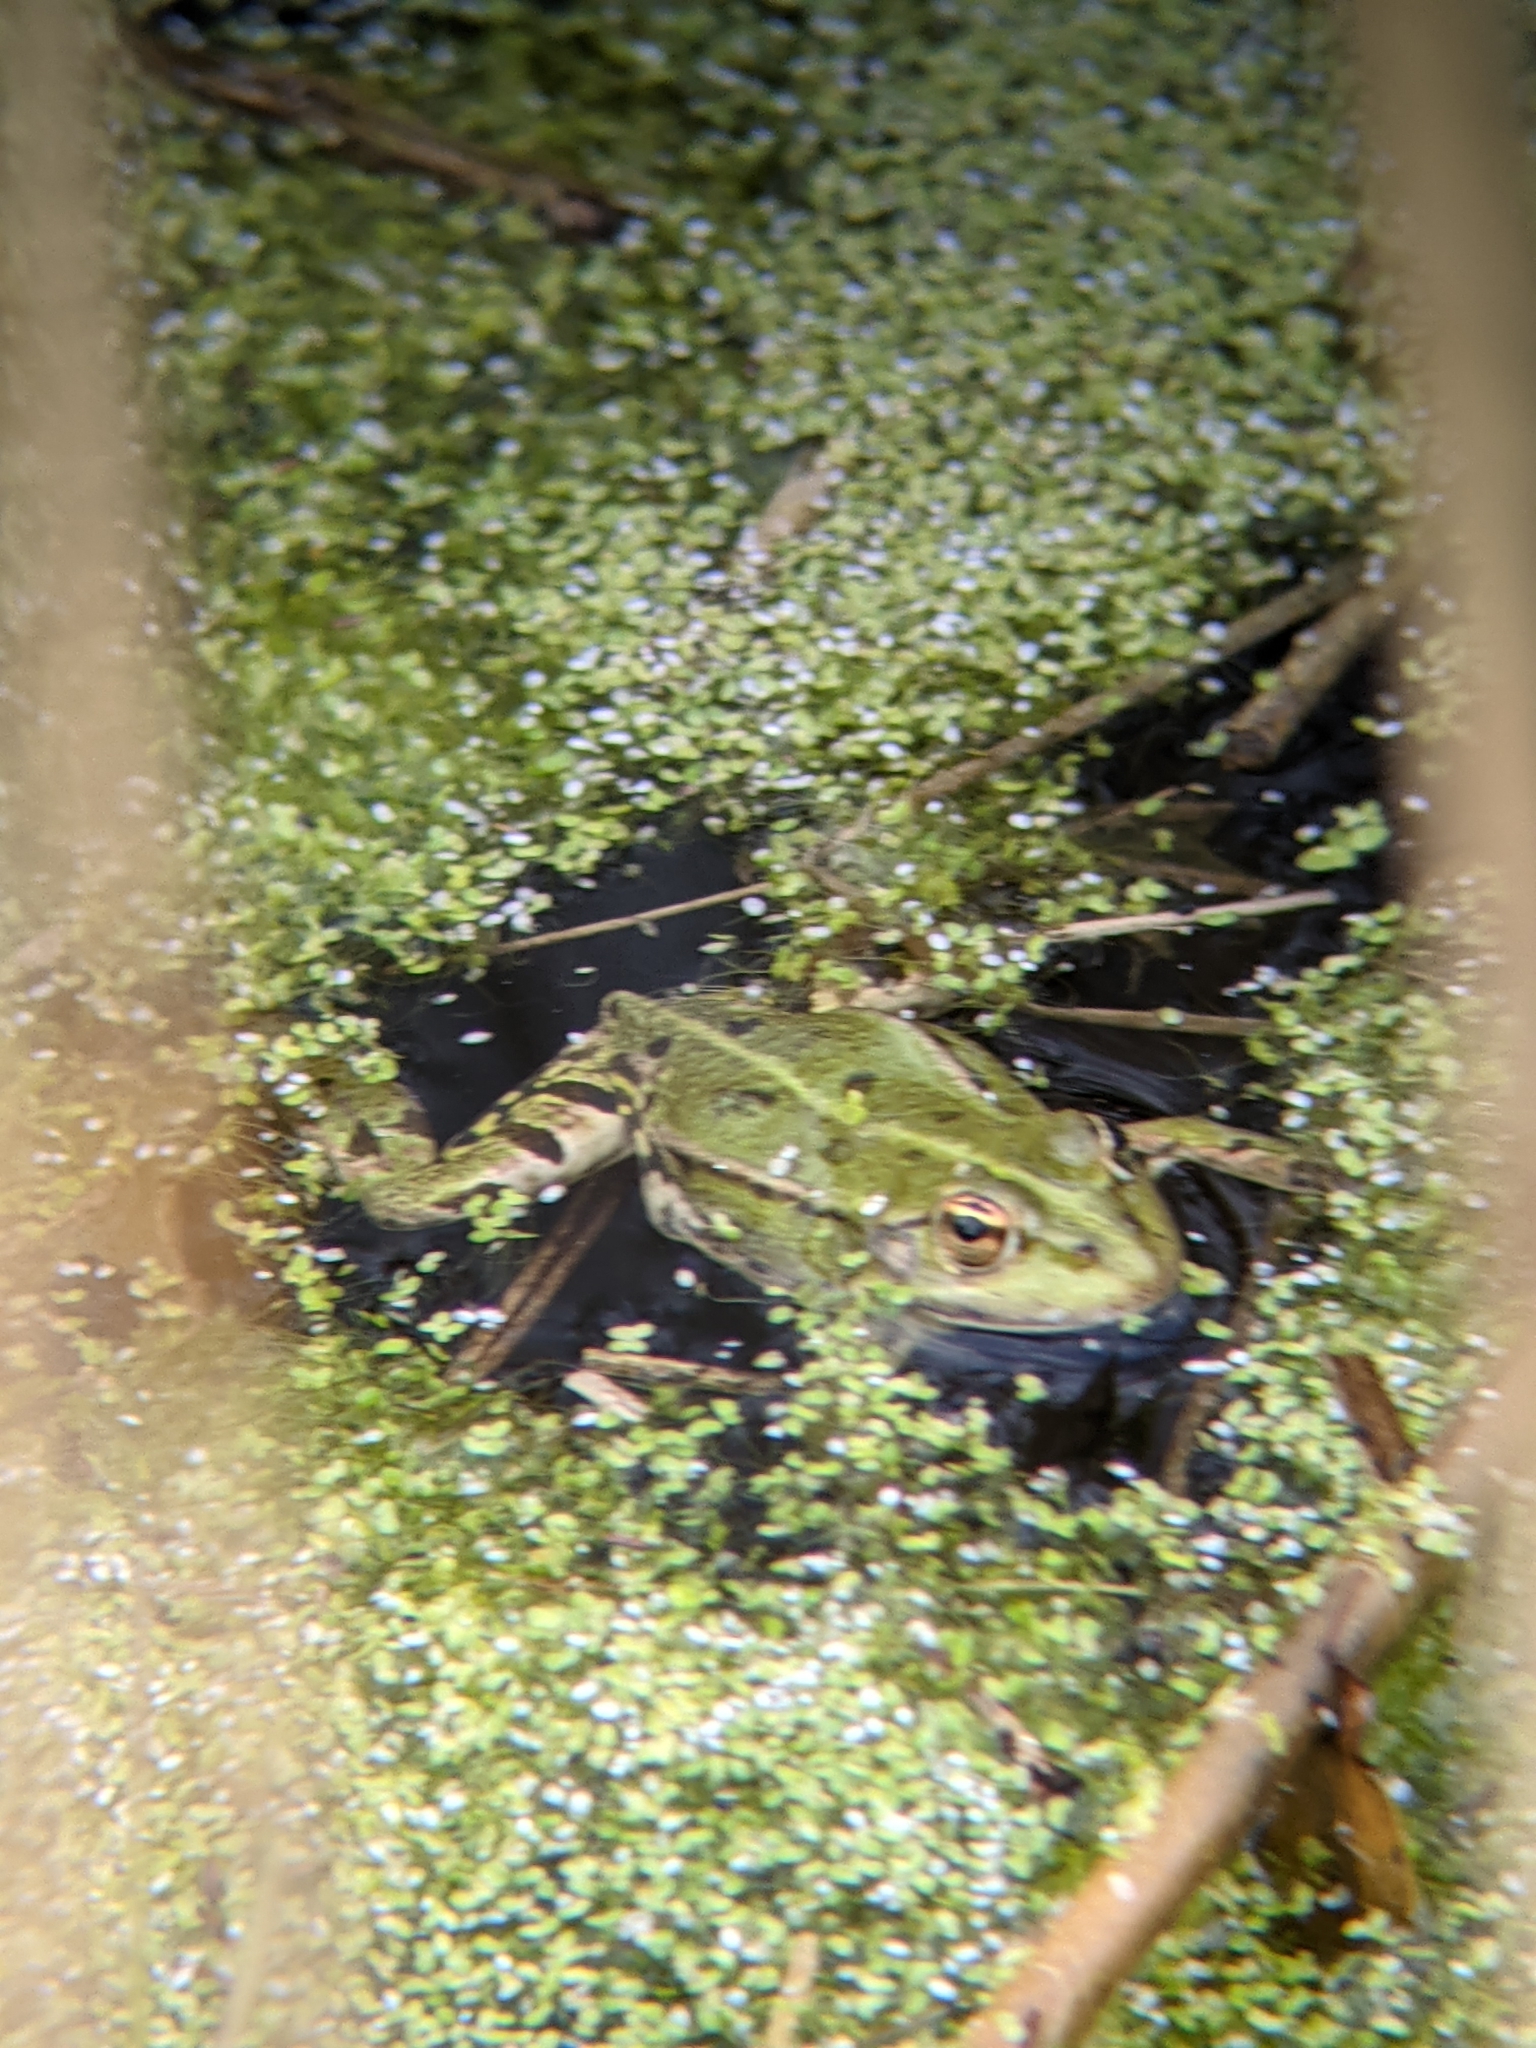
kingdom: Animalia
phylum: Chordata
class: Amphibia
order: Anura
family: Ranidae
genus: Pelophylax
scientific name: Pelophylax
